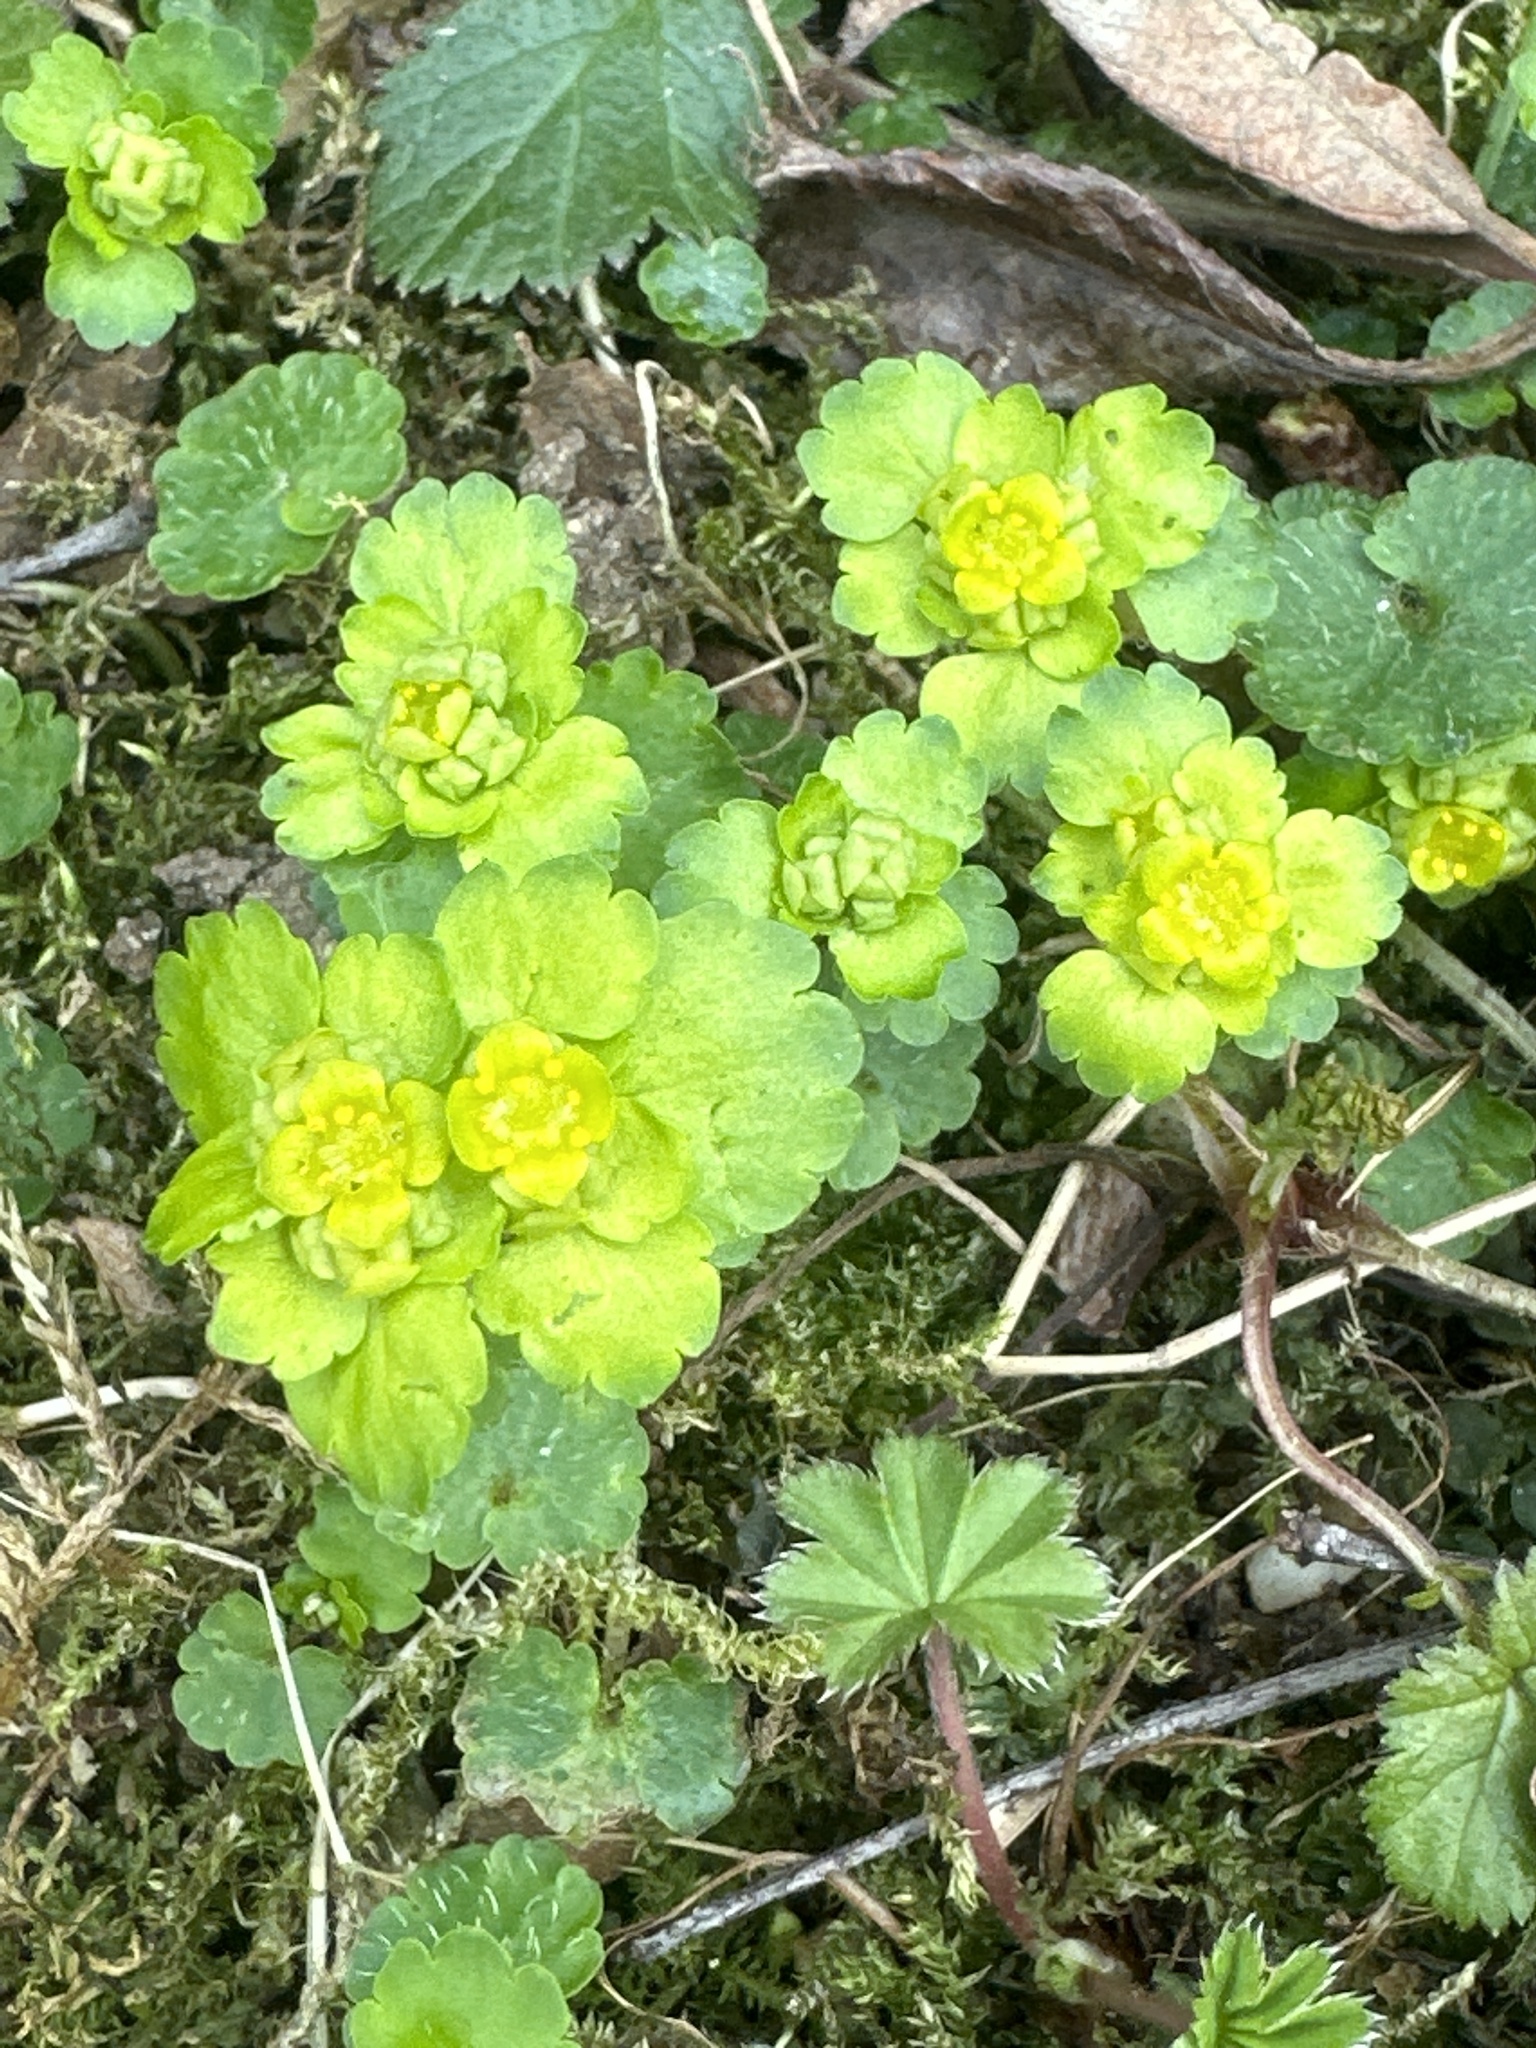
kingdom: Plantae
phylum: Tracheophyta
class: Magnoliopsida
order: Saxifragales
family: Saxifragaceae
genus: Chrysosplenium
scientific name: Chrysosplenium alternifolium
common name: Alternate-leaved golden-saxifrage
